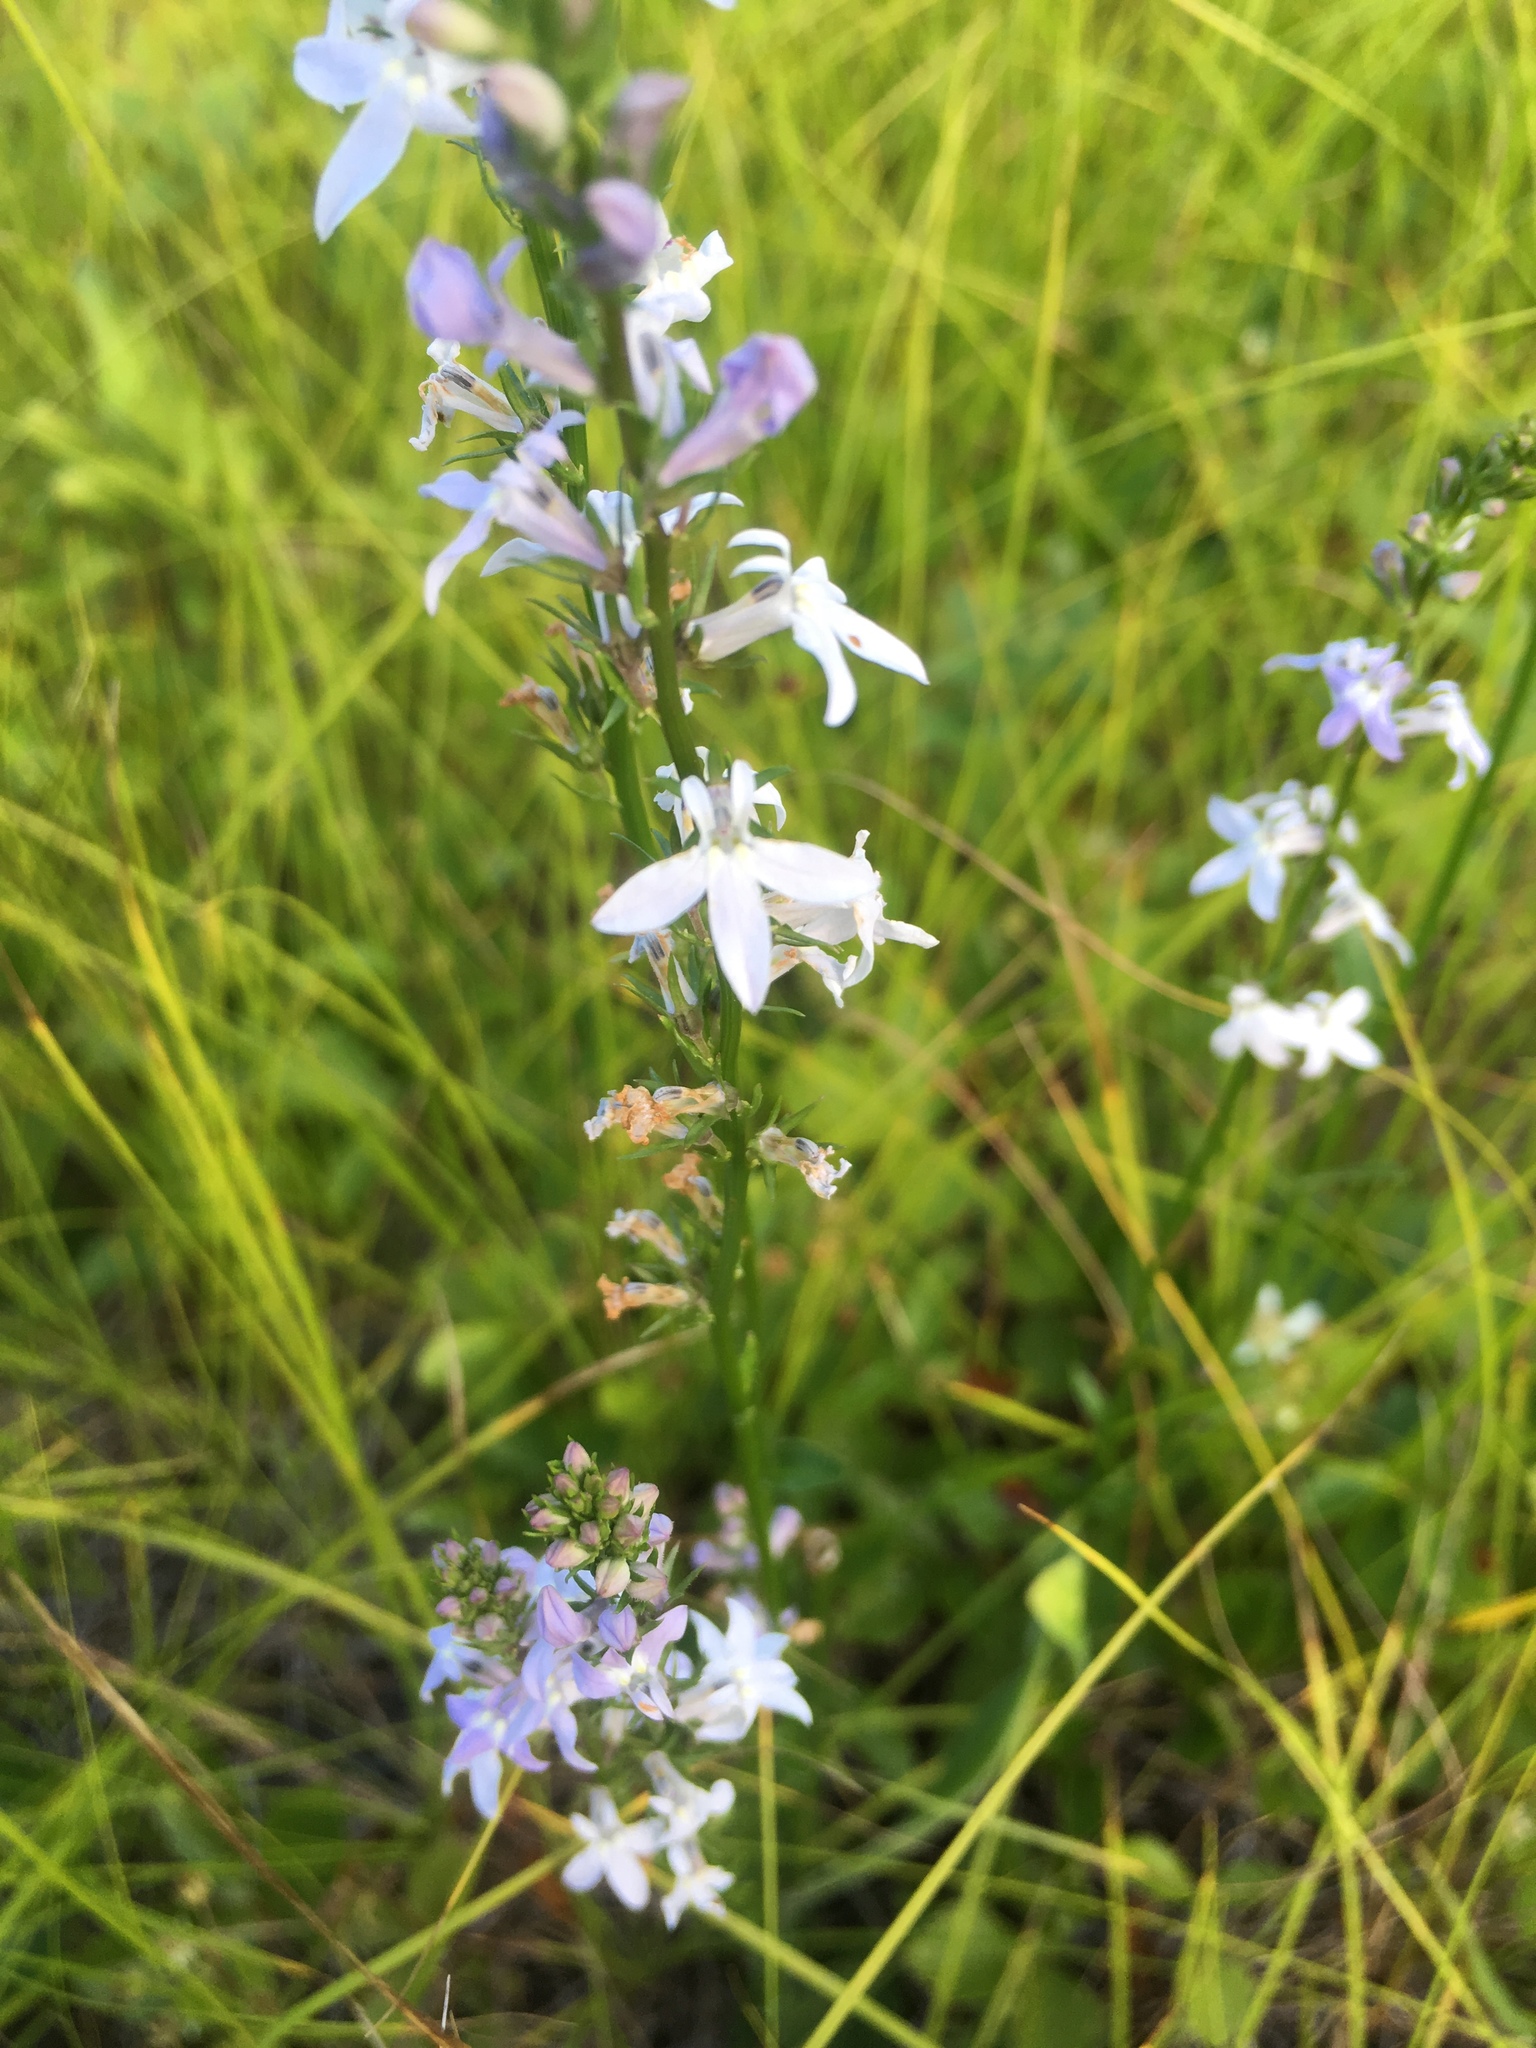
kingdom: Plantae
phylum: Tracheophyta
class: Magnoliopsida
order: Asterales
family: Campanulaceae
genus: Lobelia
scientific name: Lobelia spicata
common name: Pale-spike lobelia
